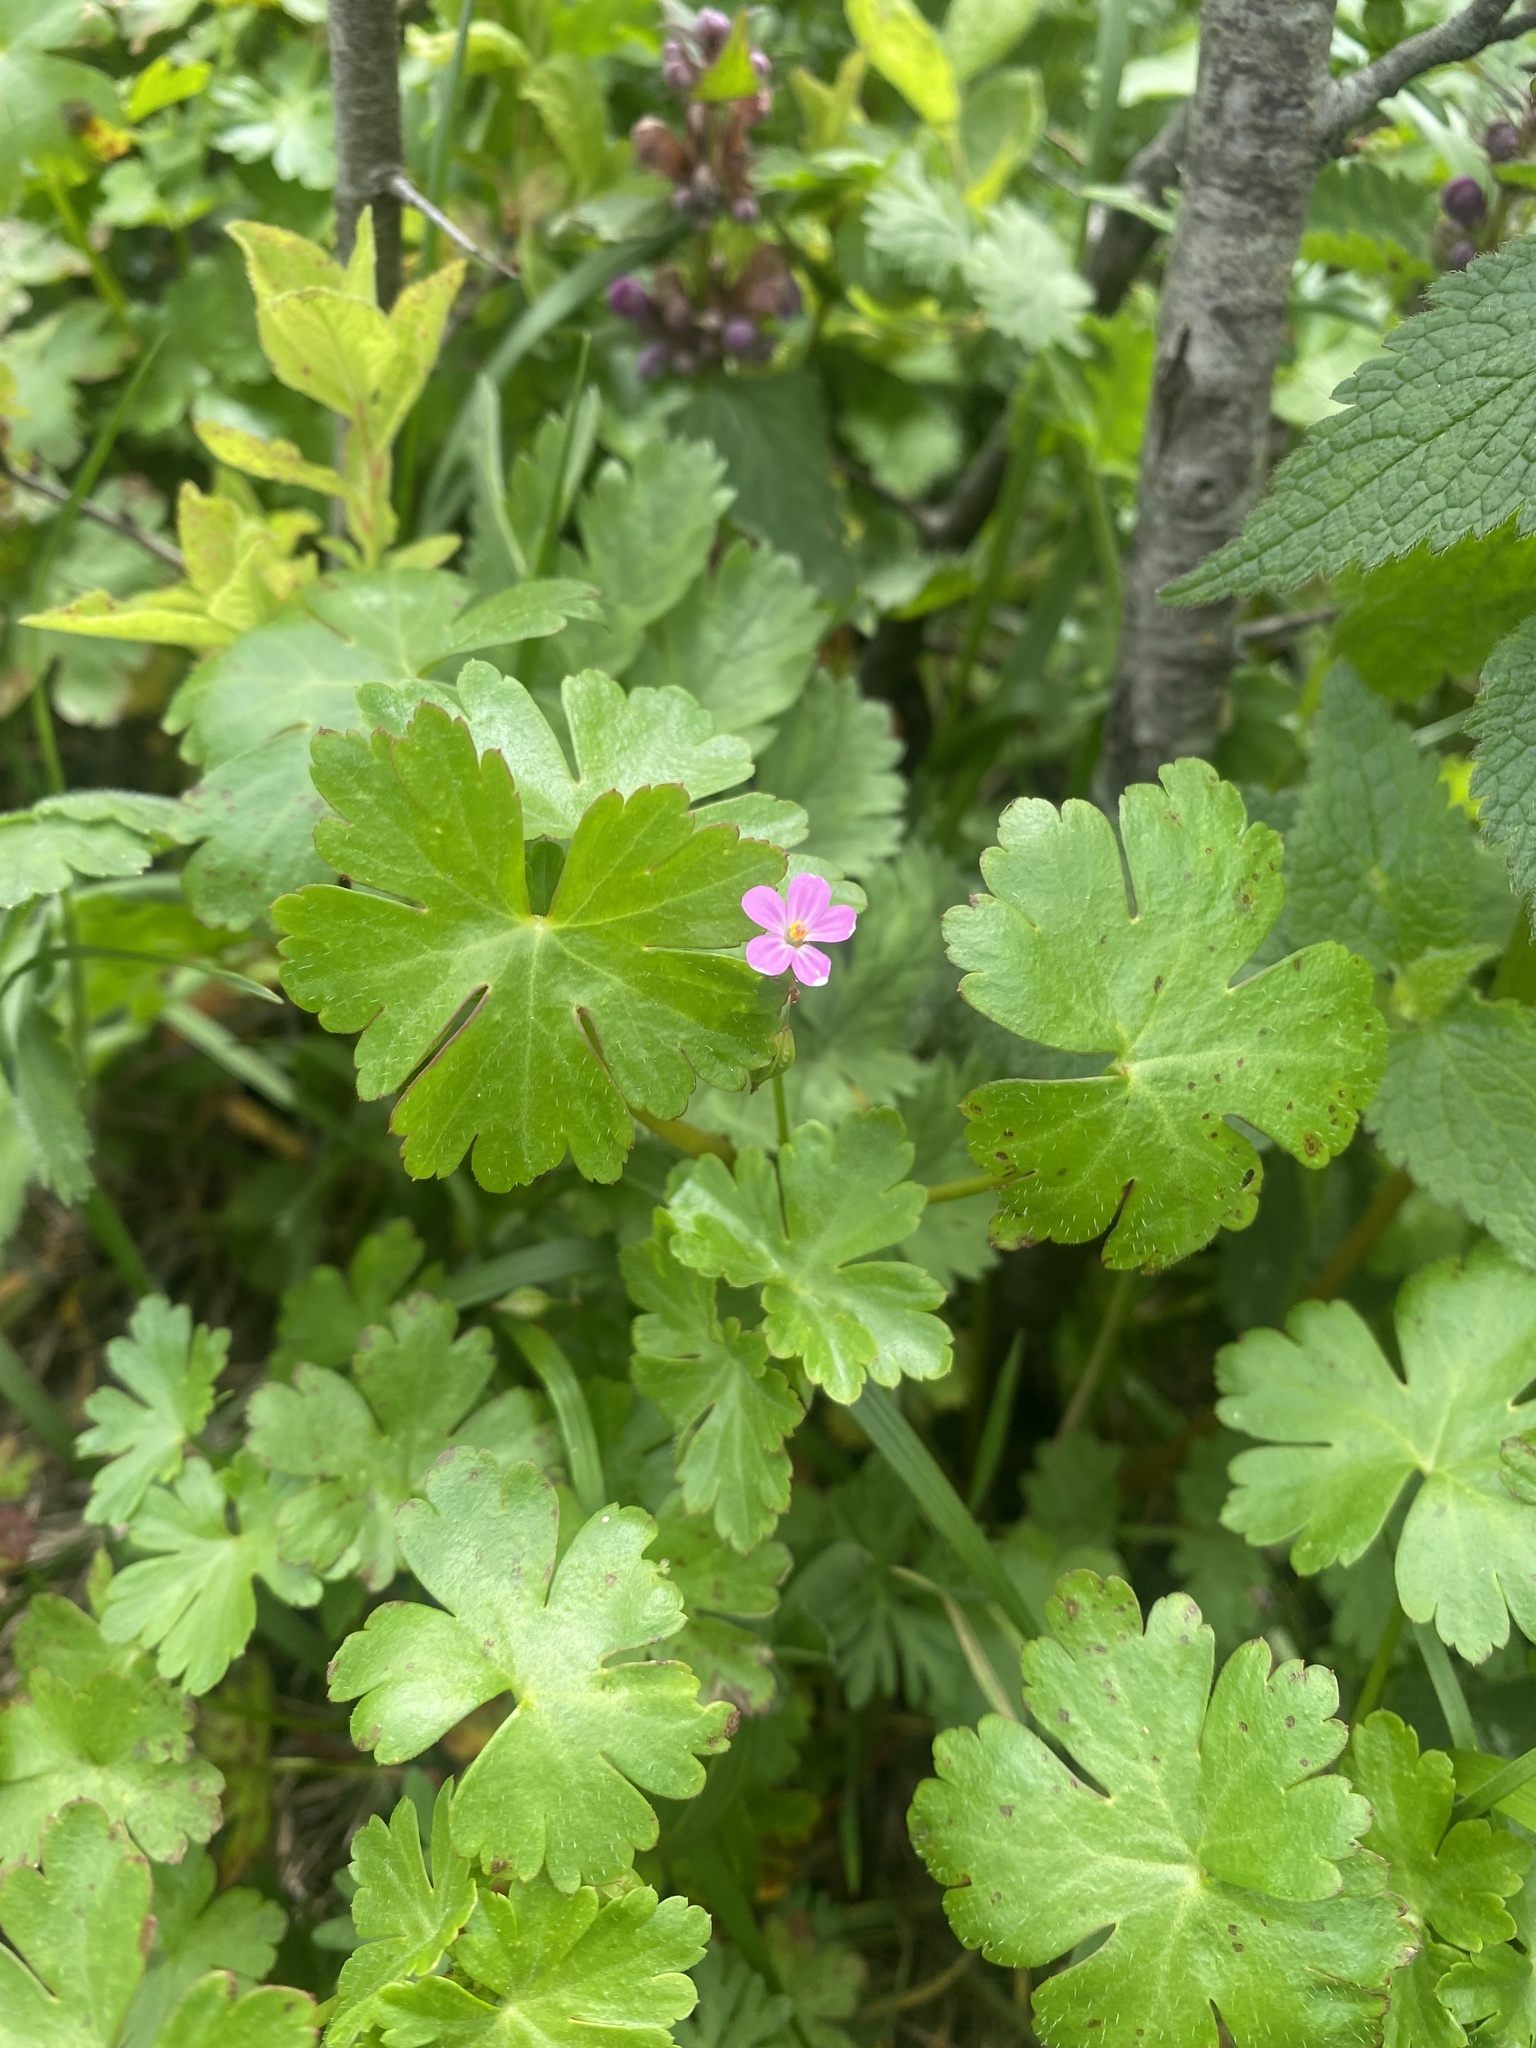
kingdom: Plantae
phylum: Tracheophyta
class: Magnoliopsida
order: Geraniales
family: Geraniaceae
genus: Geranium
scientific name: Geranium lucidum
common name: Shining crane's-bill
